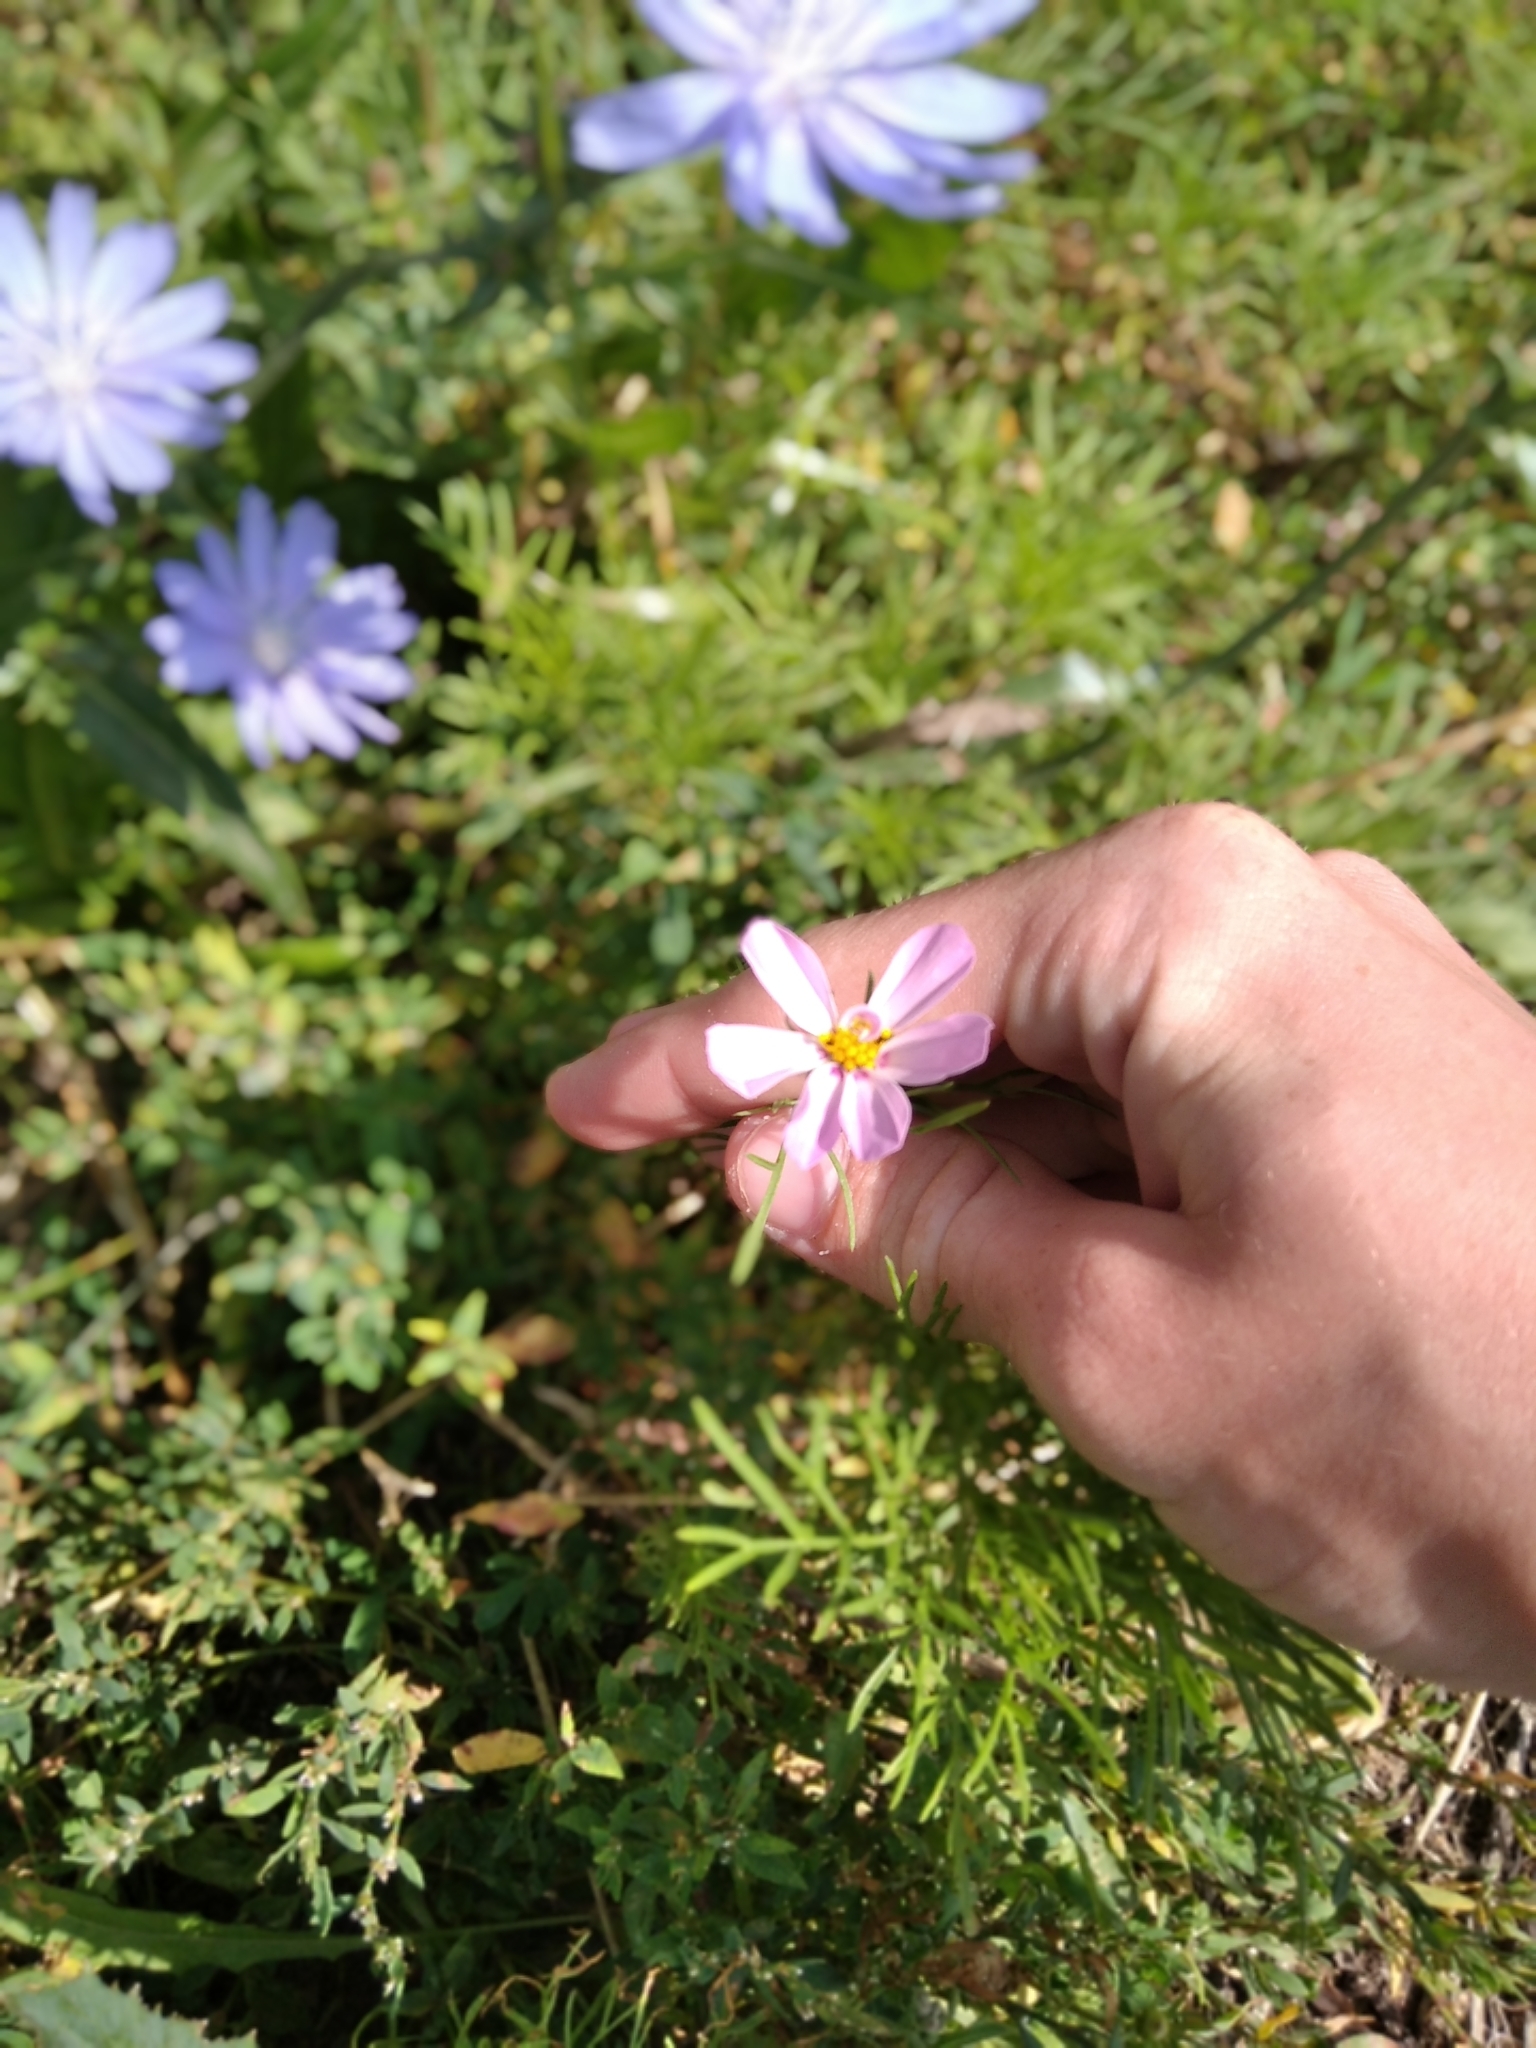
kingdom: Plantae
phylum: Tracheophyta
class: Magnoliopsida
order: Asterales
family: Asteraceae
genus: Cosmos
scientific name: Cosmos bipinnatus
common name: Garden cosmos
